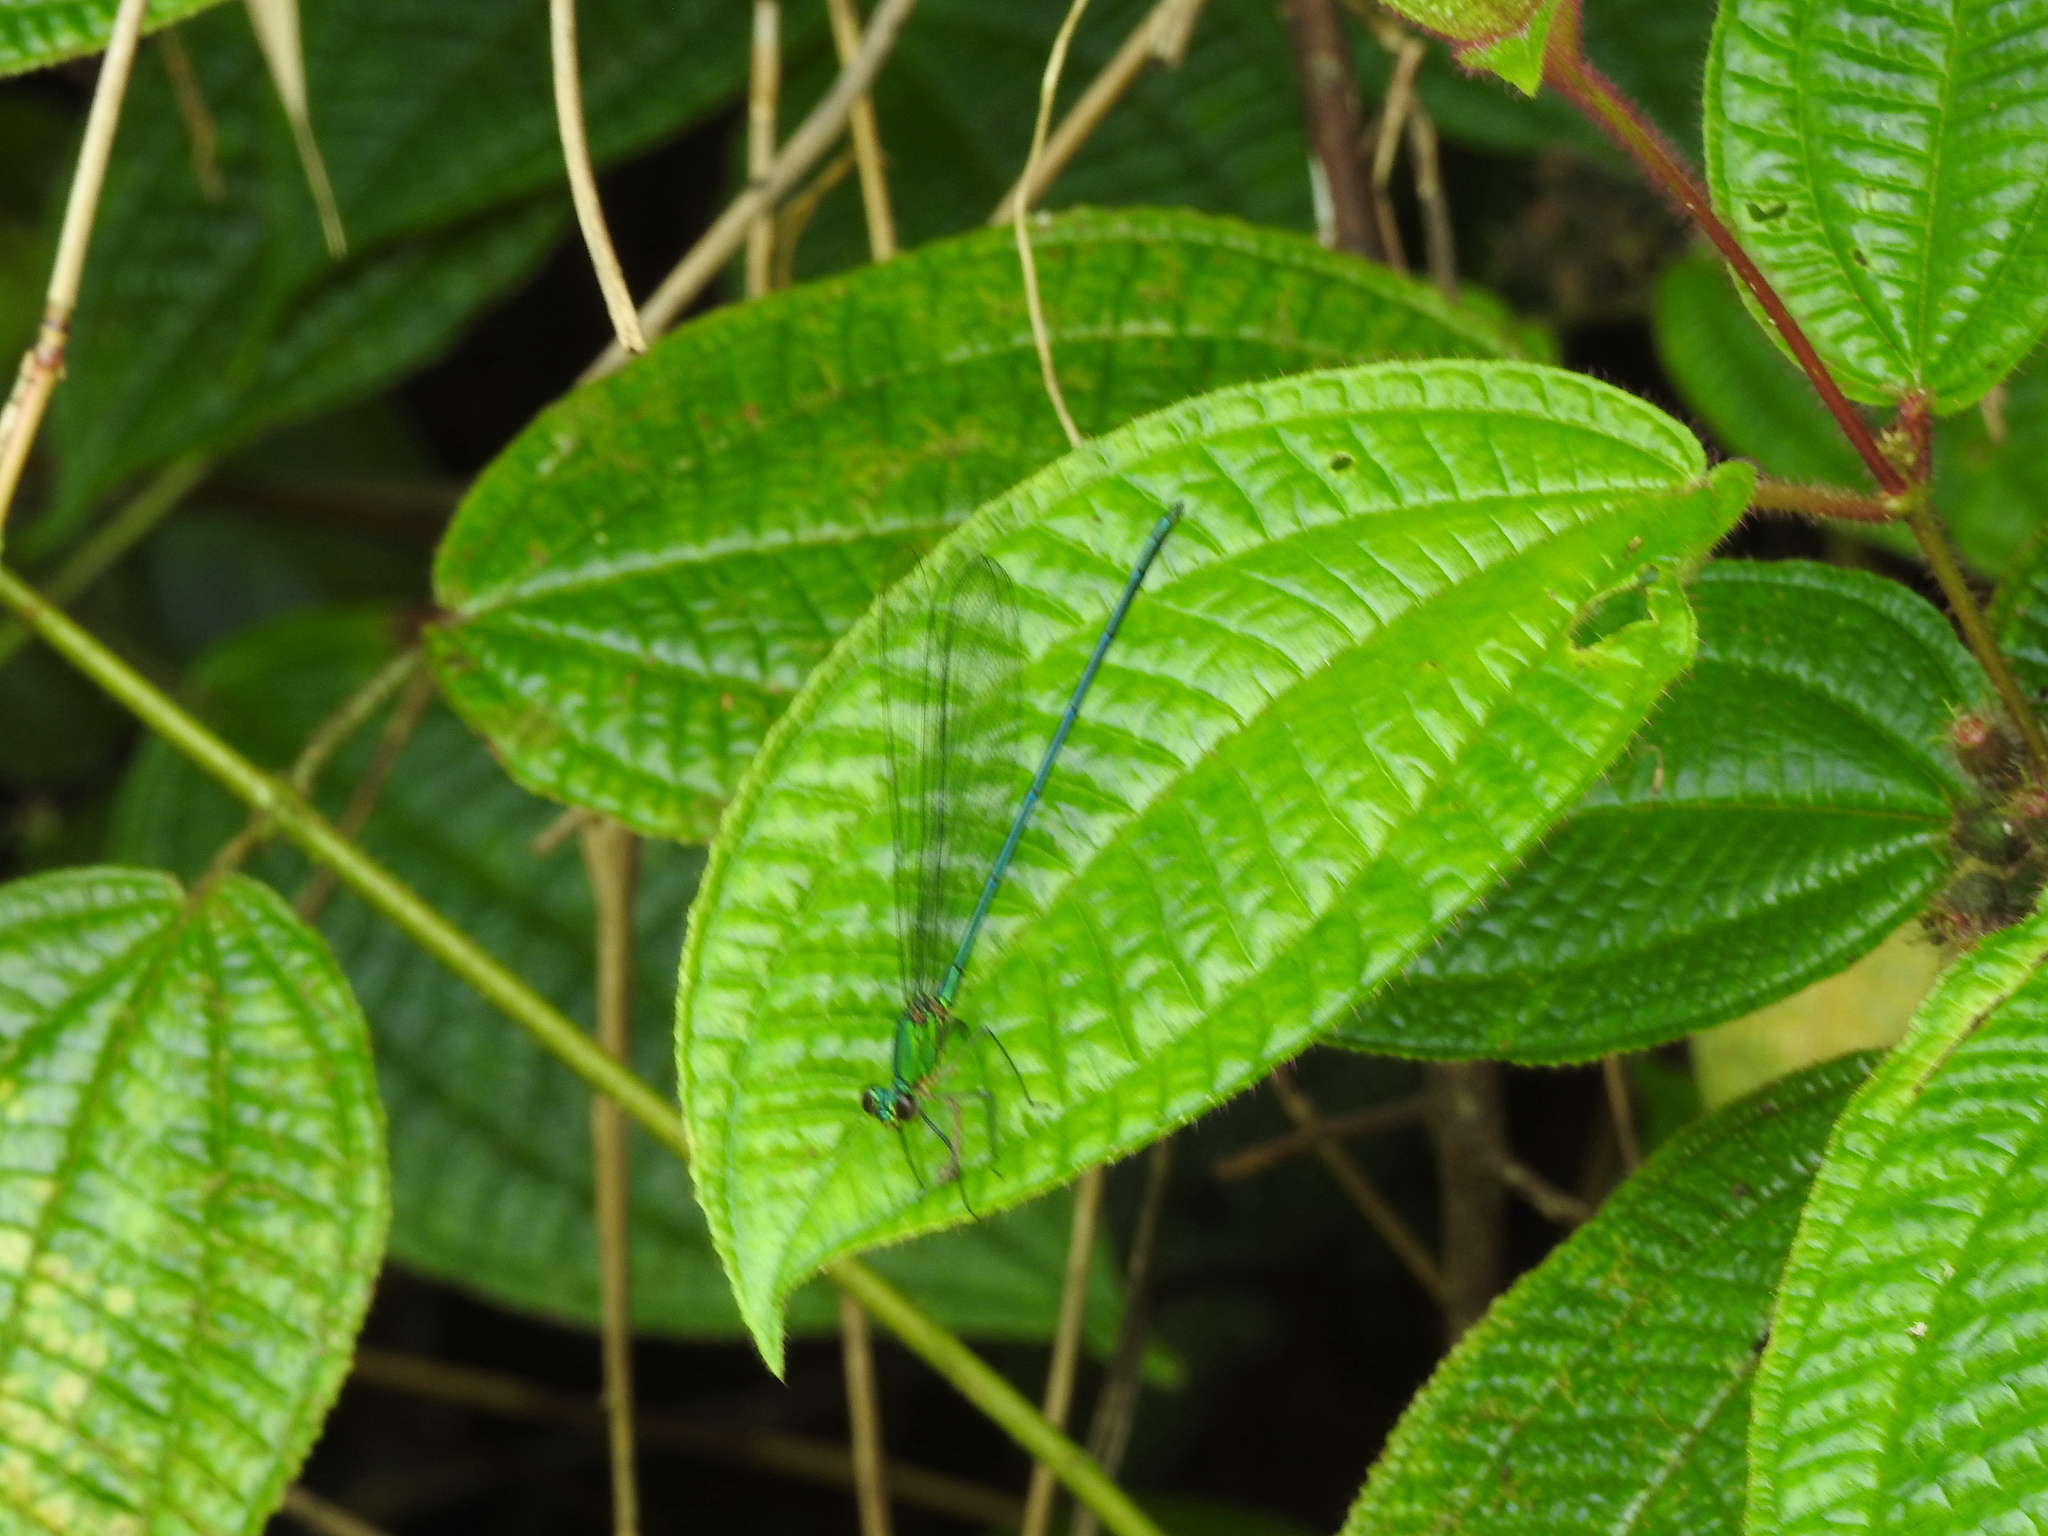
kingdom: Animalia
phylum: Arthropoda
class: Insecta
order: Odonata
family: Calopterygidae
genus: Vestalis
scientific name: Vestalis gracilis
